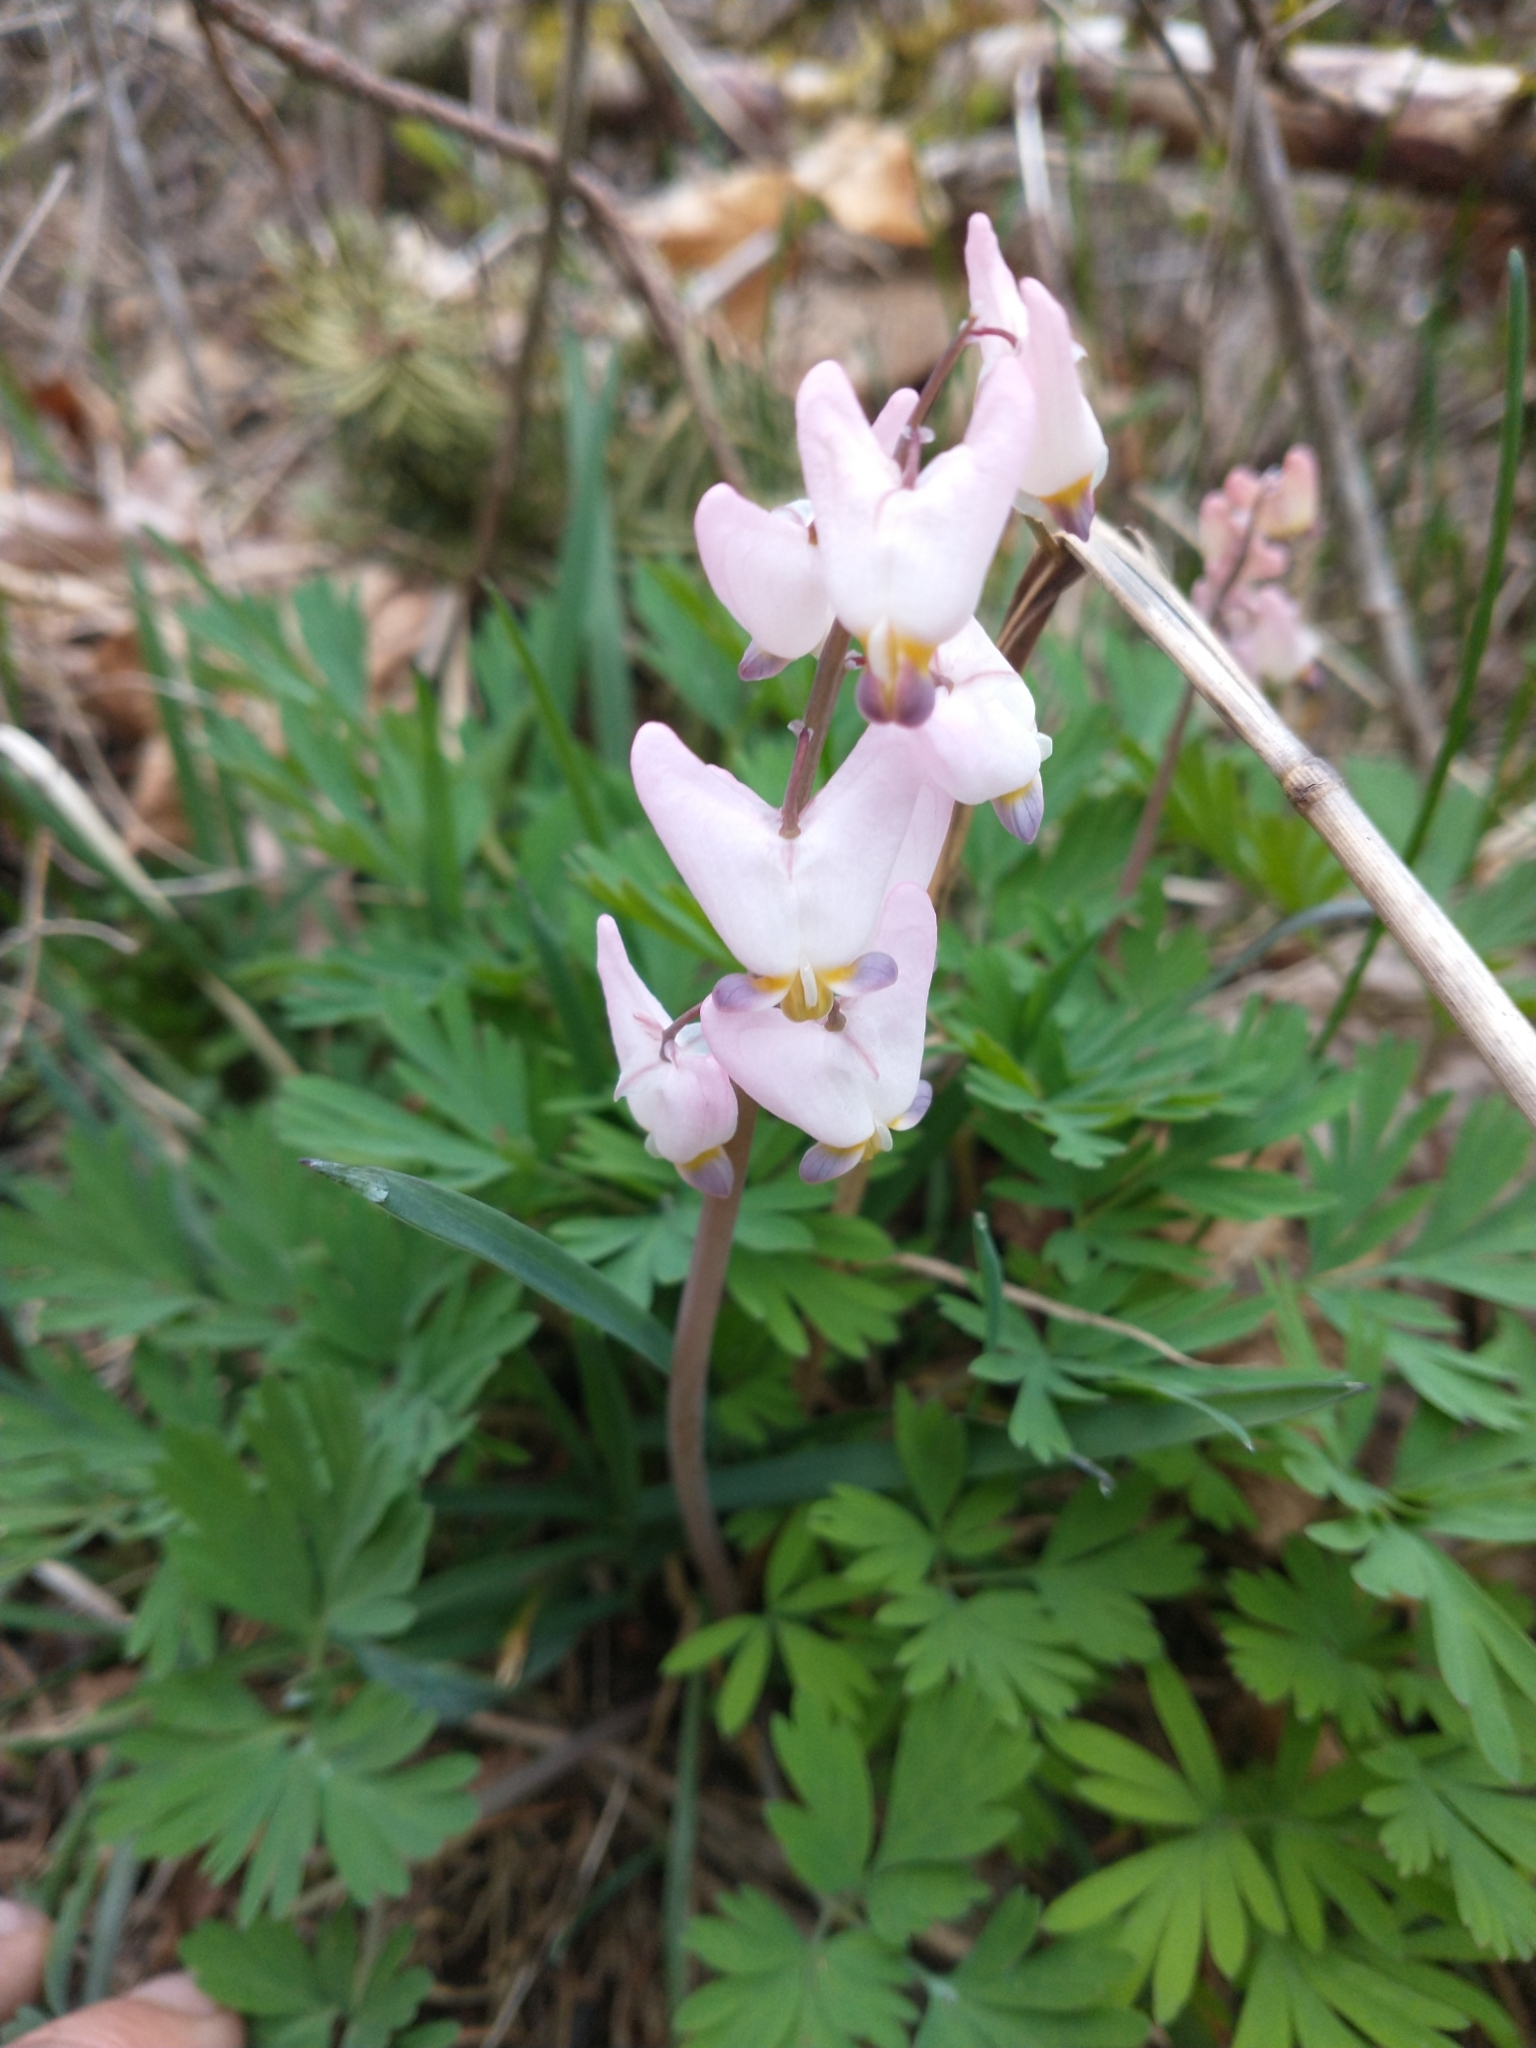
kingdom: Plantae
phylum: Tracheophyta
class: Magnoliopsida
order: Ranunculales
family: Papaveraceae
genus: Dicentra
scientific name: Dicentra cucullaria
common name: Dutchman's breeches
